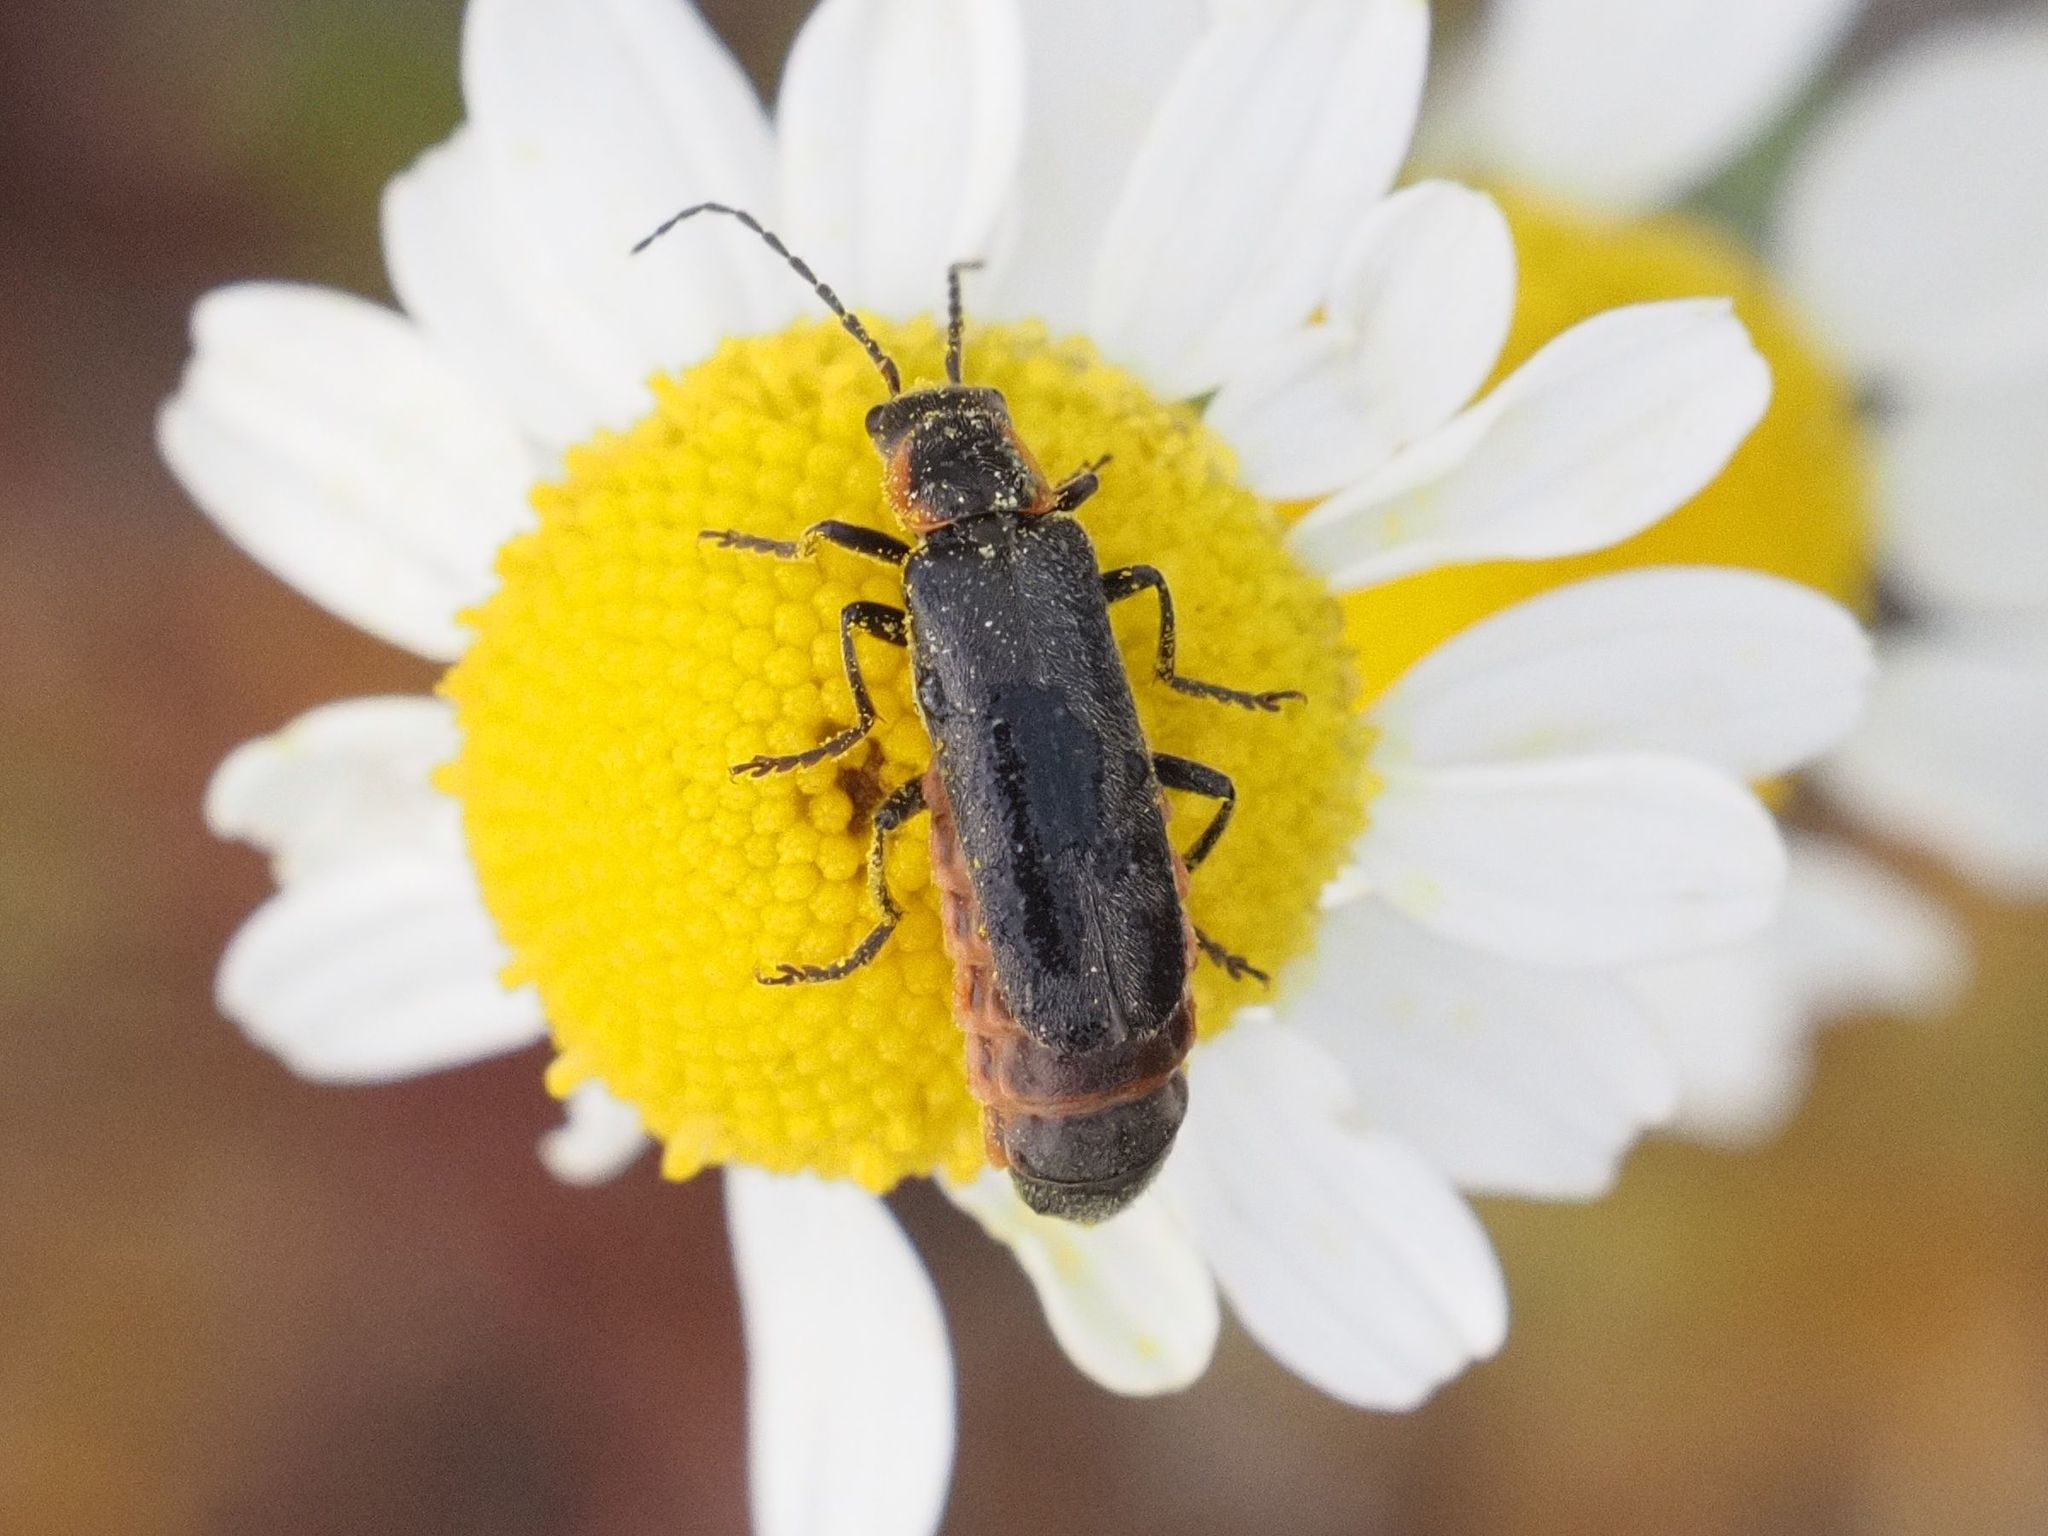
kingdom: Animalia
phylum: Arthropoda
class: Insecta
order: Coleoptera
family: Cantharidae
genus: Cantharis
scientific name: Cantharis pulicaria
